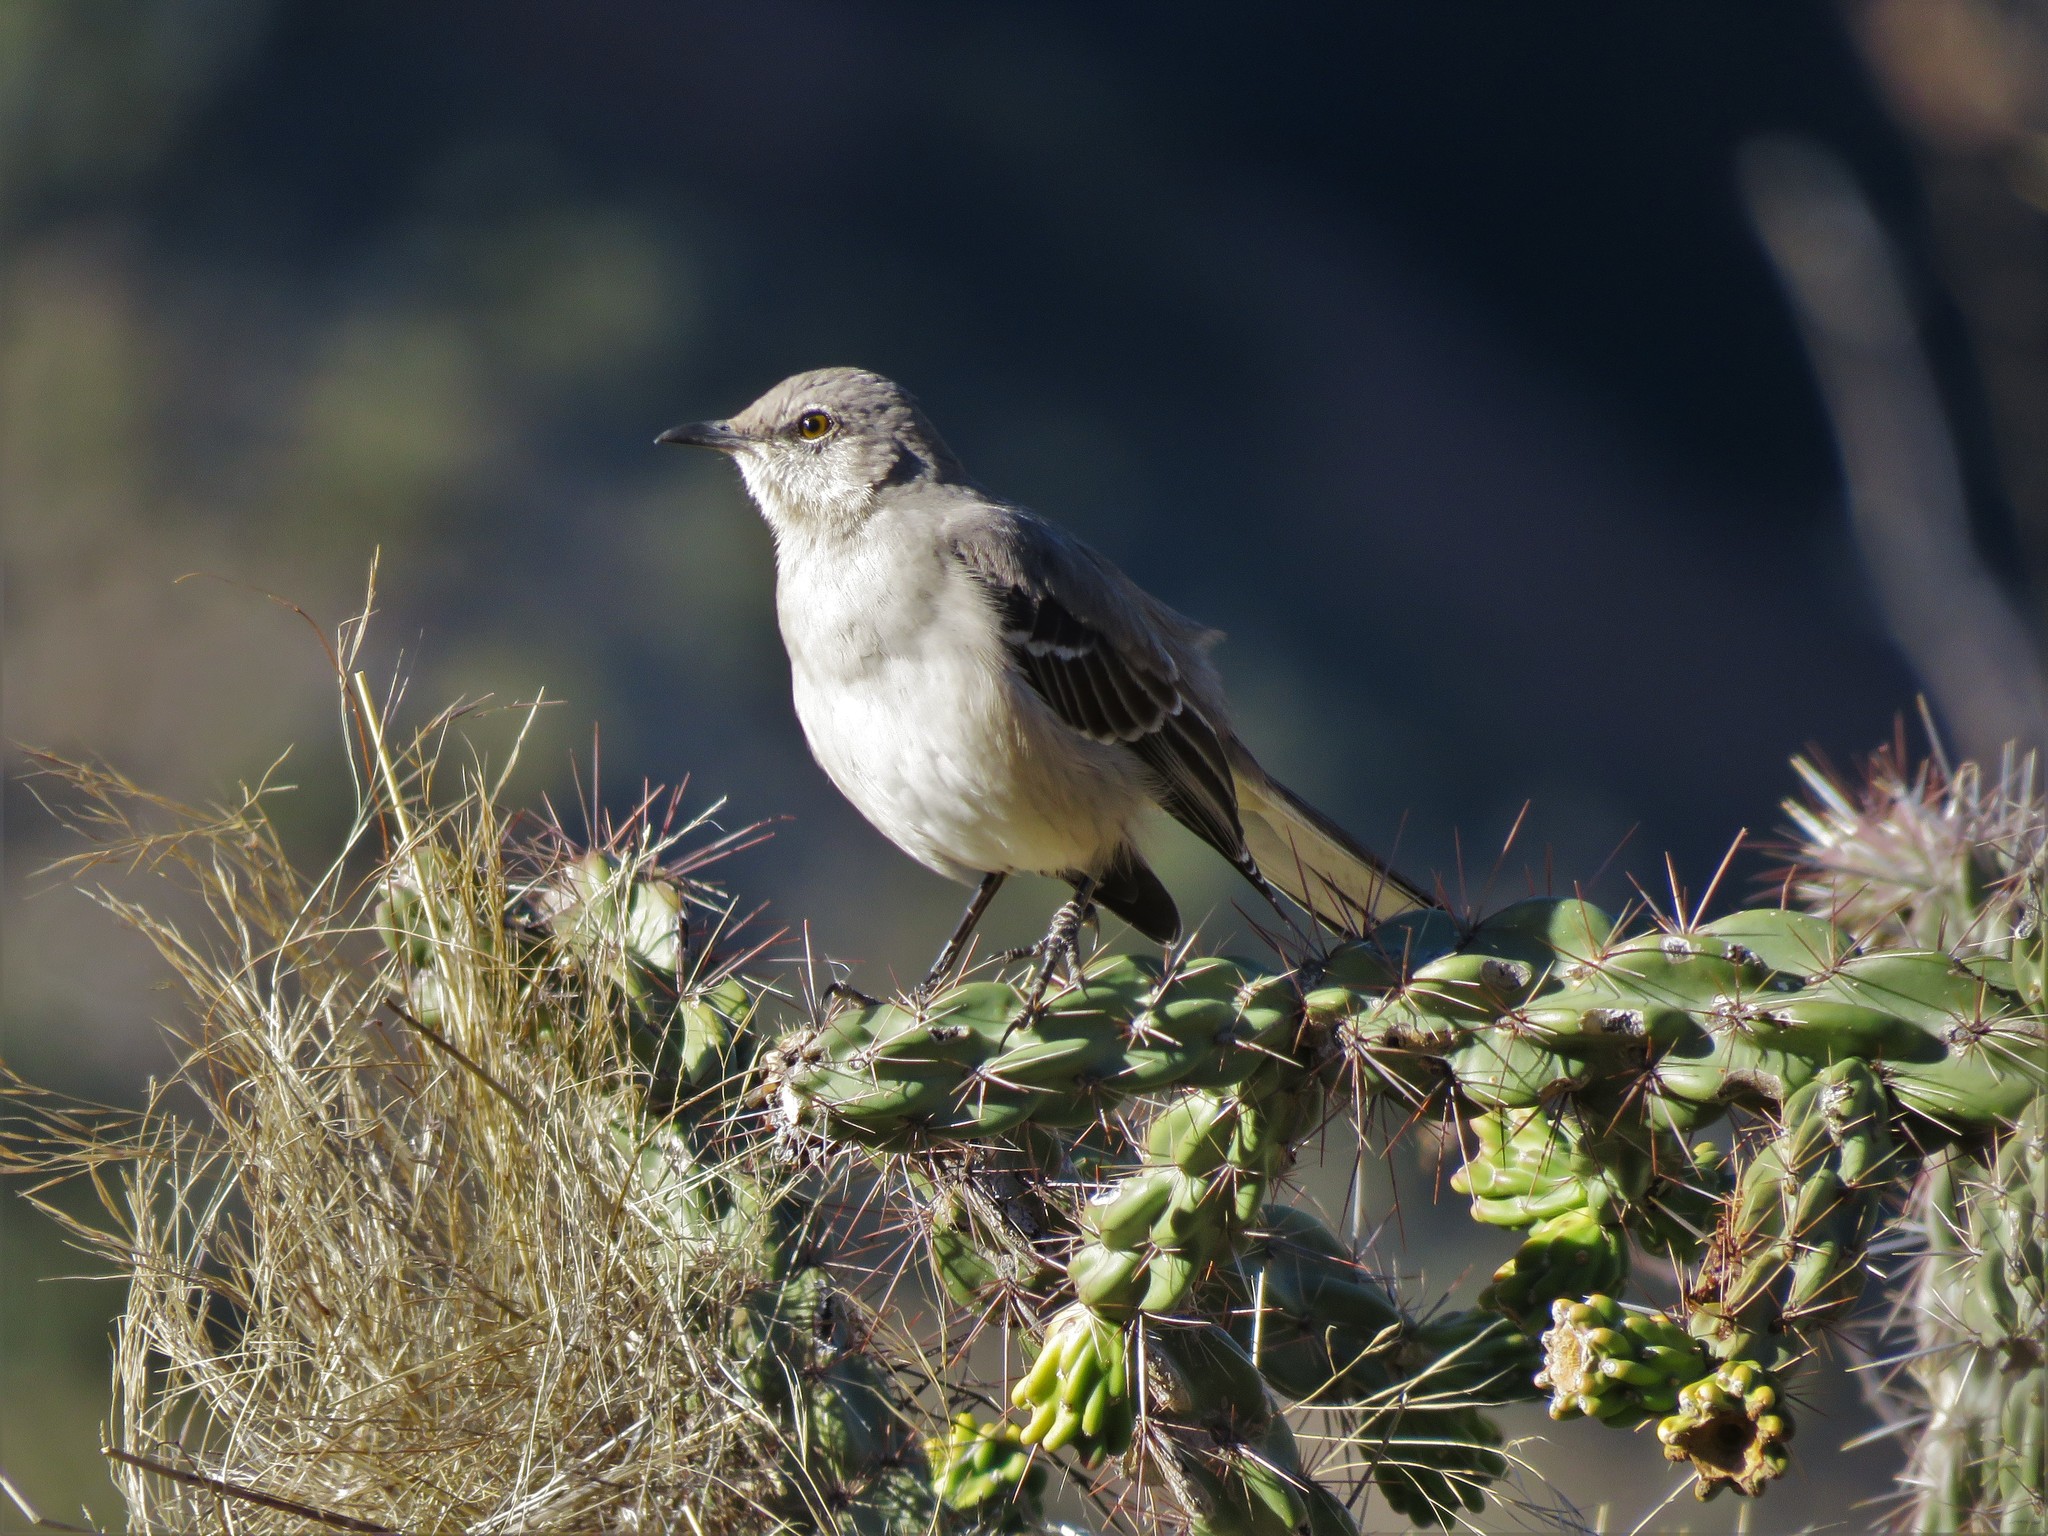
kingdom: Animalia
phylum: Chordata
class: Aves
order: Passeriformes
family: Mimidae
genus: Mimus
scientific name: Mimus polyglottos
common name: Northern mockingbird
